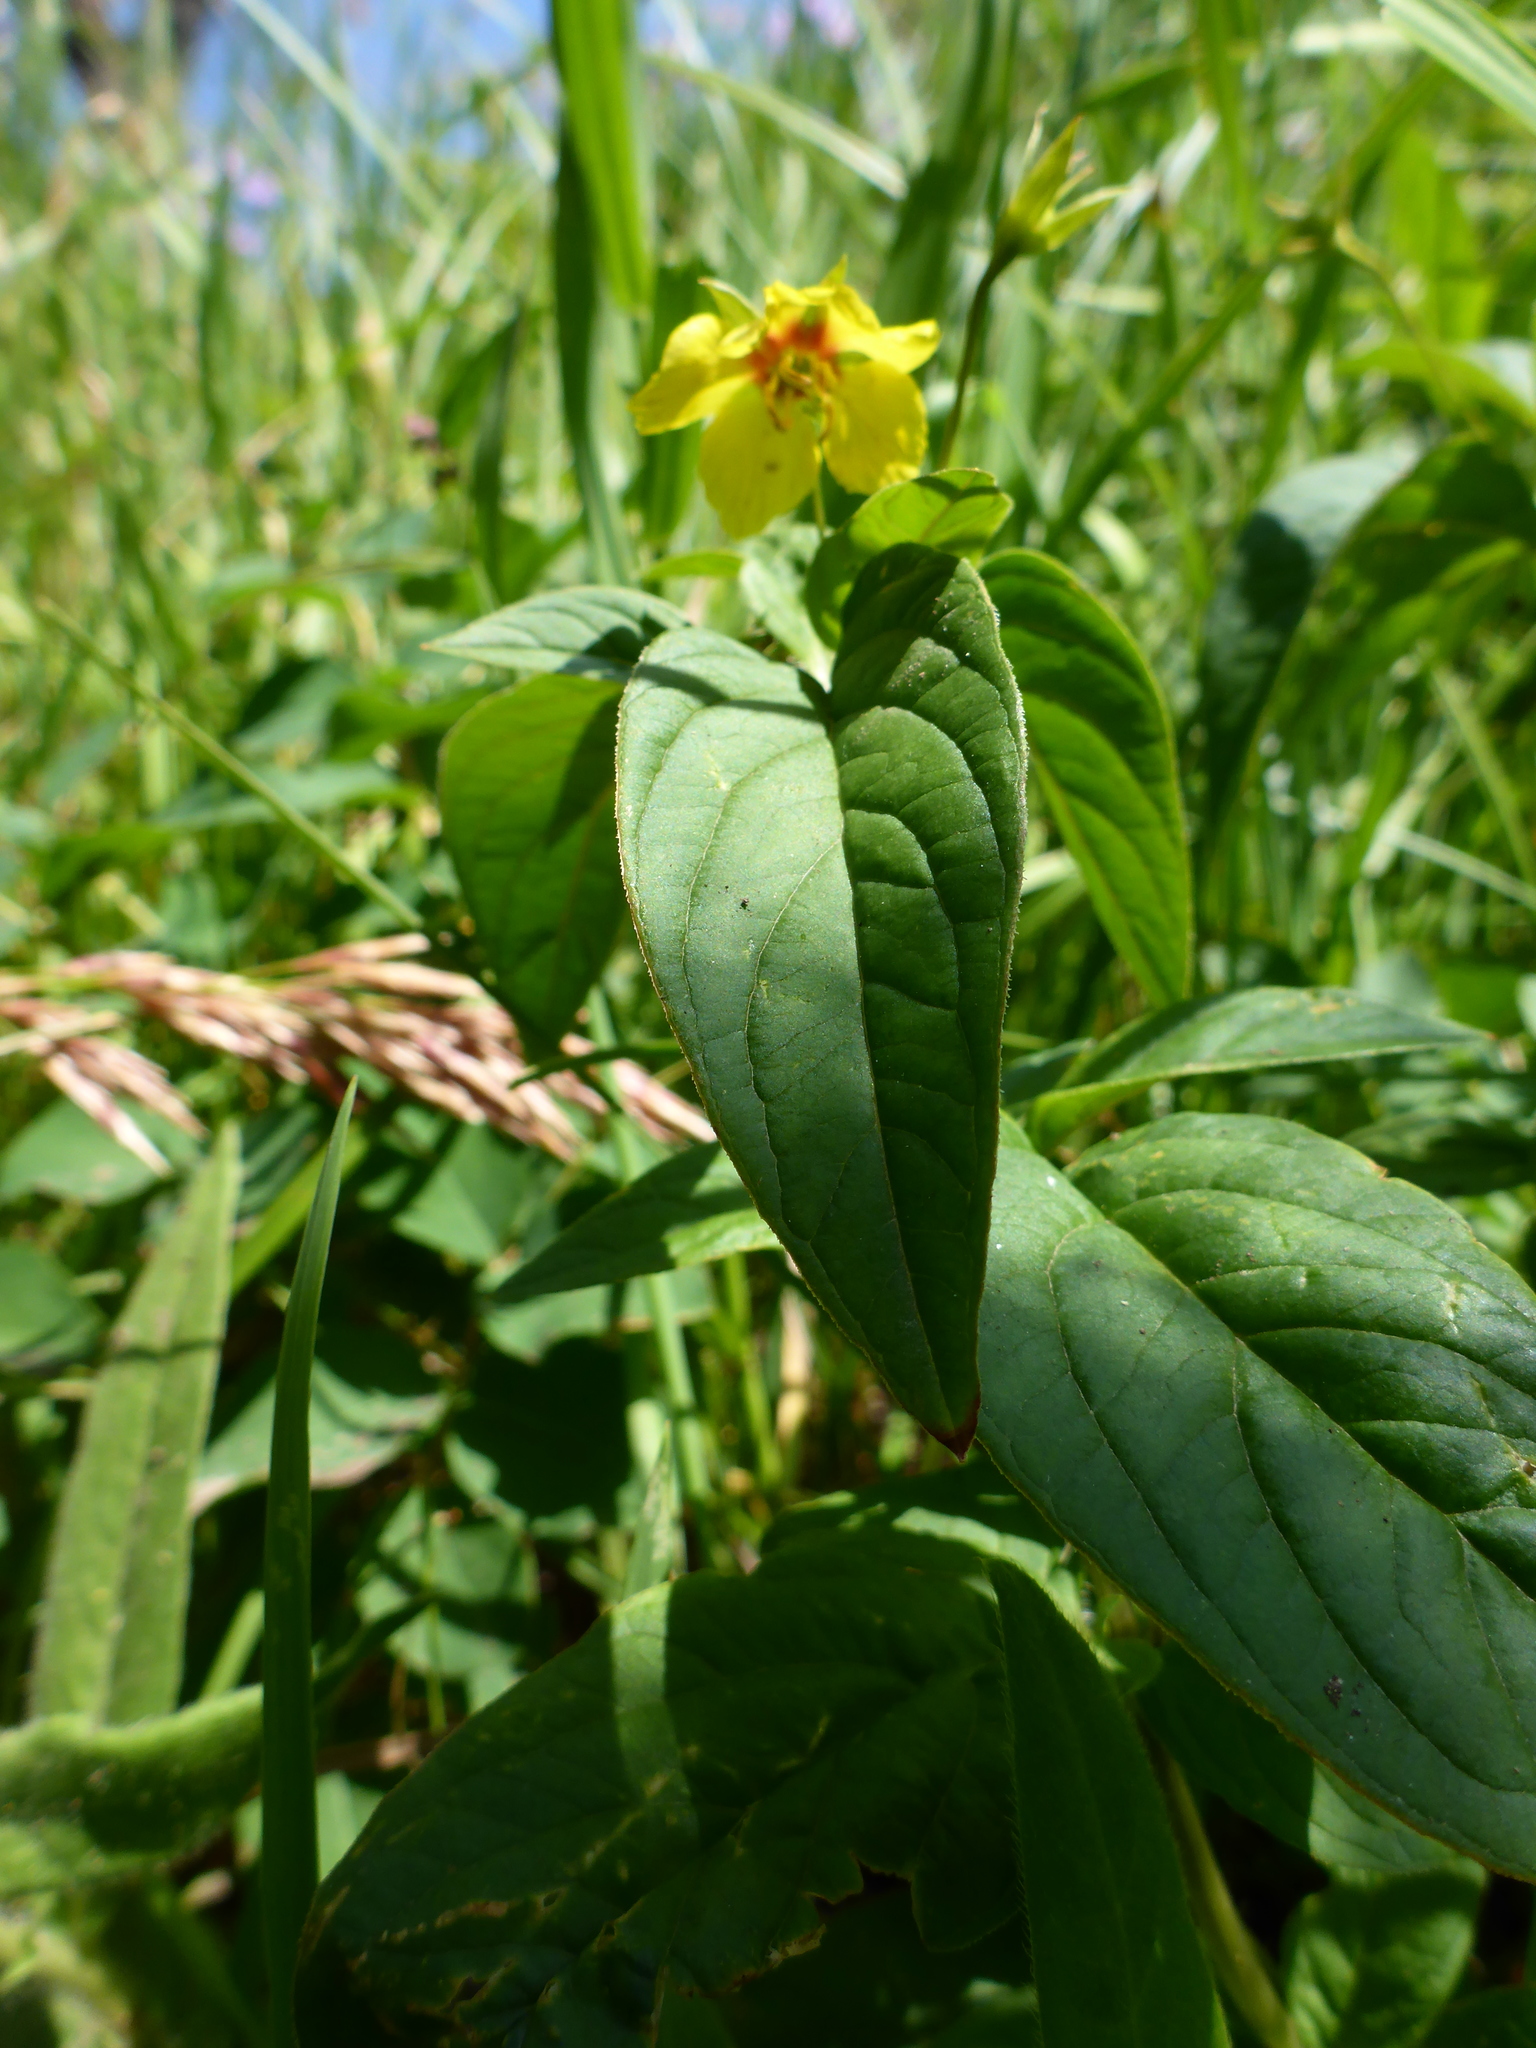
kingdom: Plantae
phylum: Tracheophyta
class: Magnoliopsida
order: Ericales
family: Primulaceae
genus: Lysimachia
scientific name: Lysimachia ciliata
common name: Fringed loosestrife
